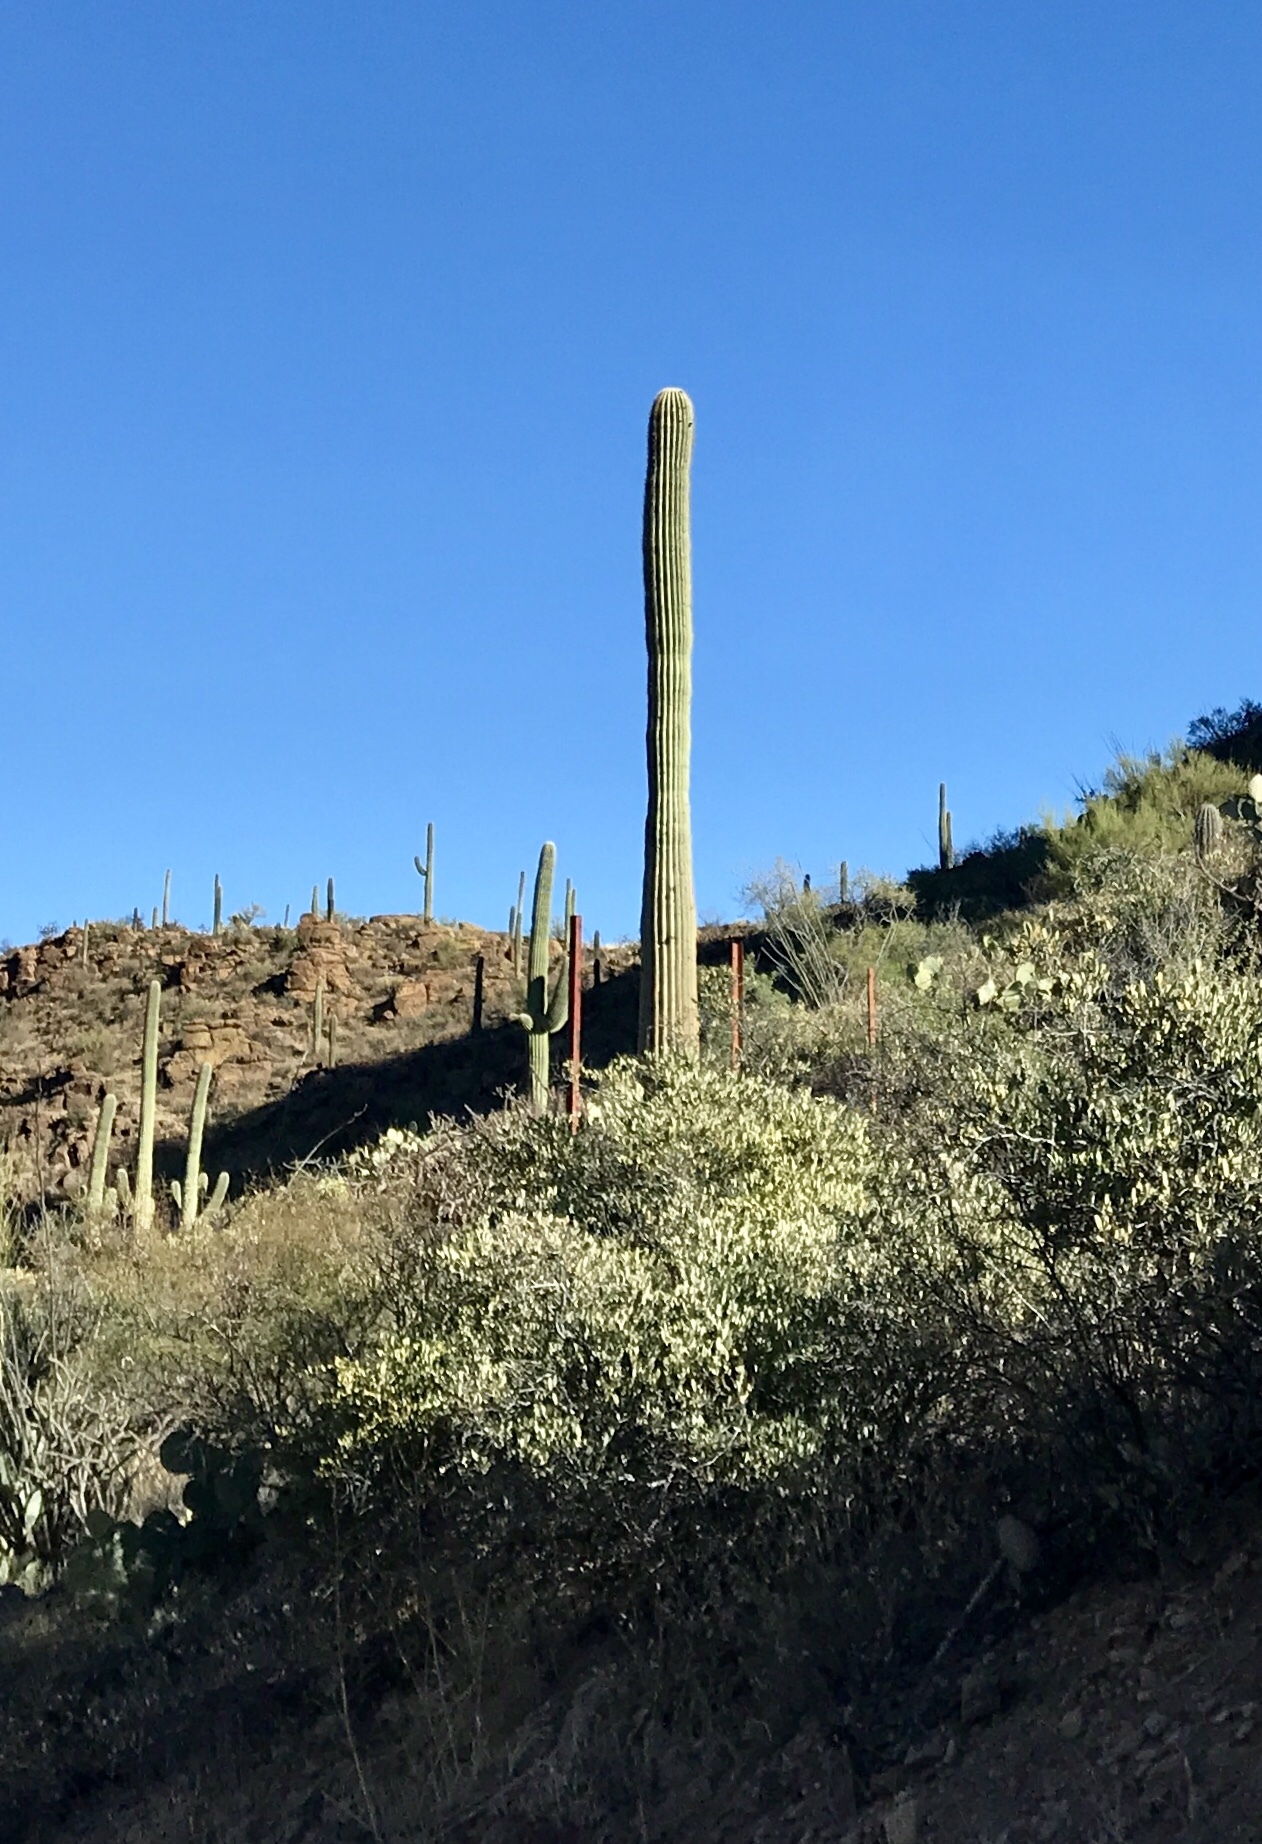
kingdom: Plantae
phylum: Tracheophyta
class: Magnoliopsida
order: Caryophyllales
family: Cactaceae
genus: Carnegiea
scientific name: Carnegiea gigantea
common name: Saguaro
